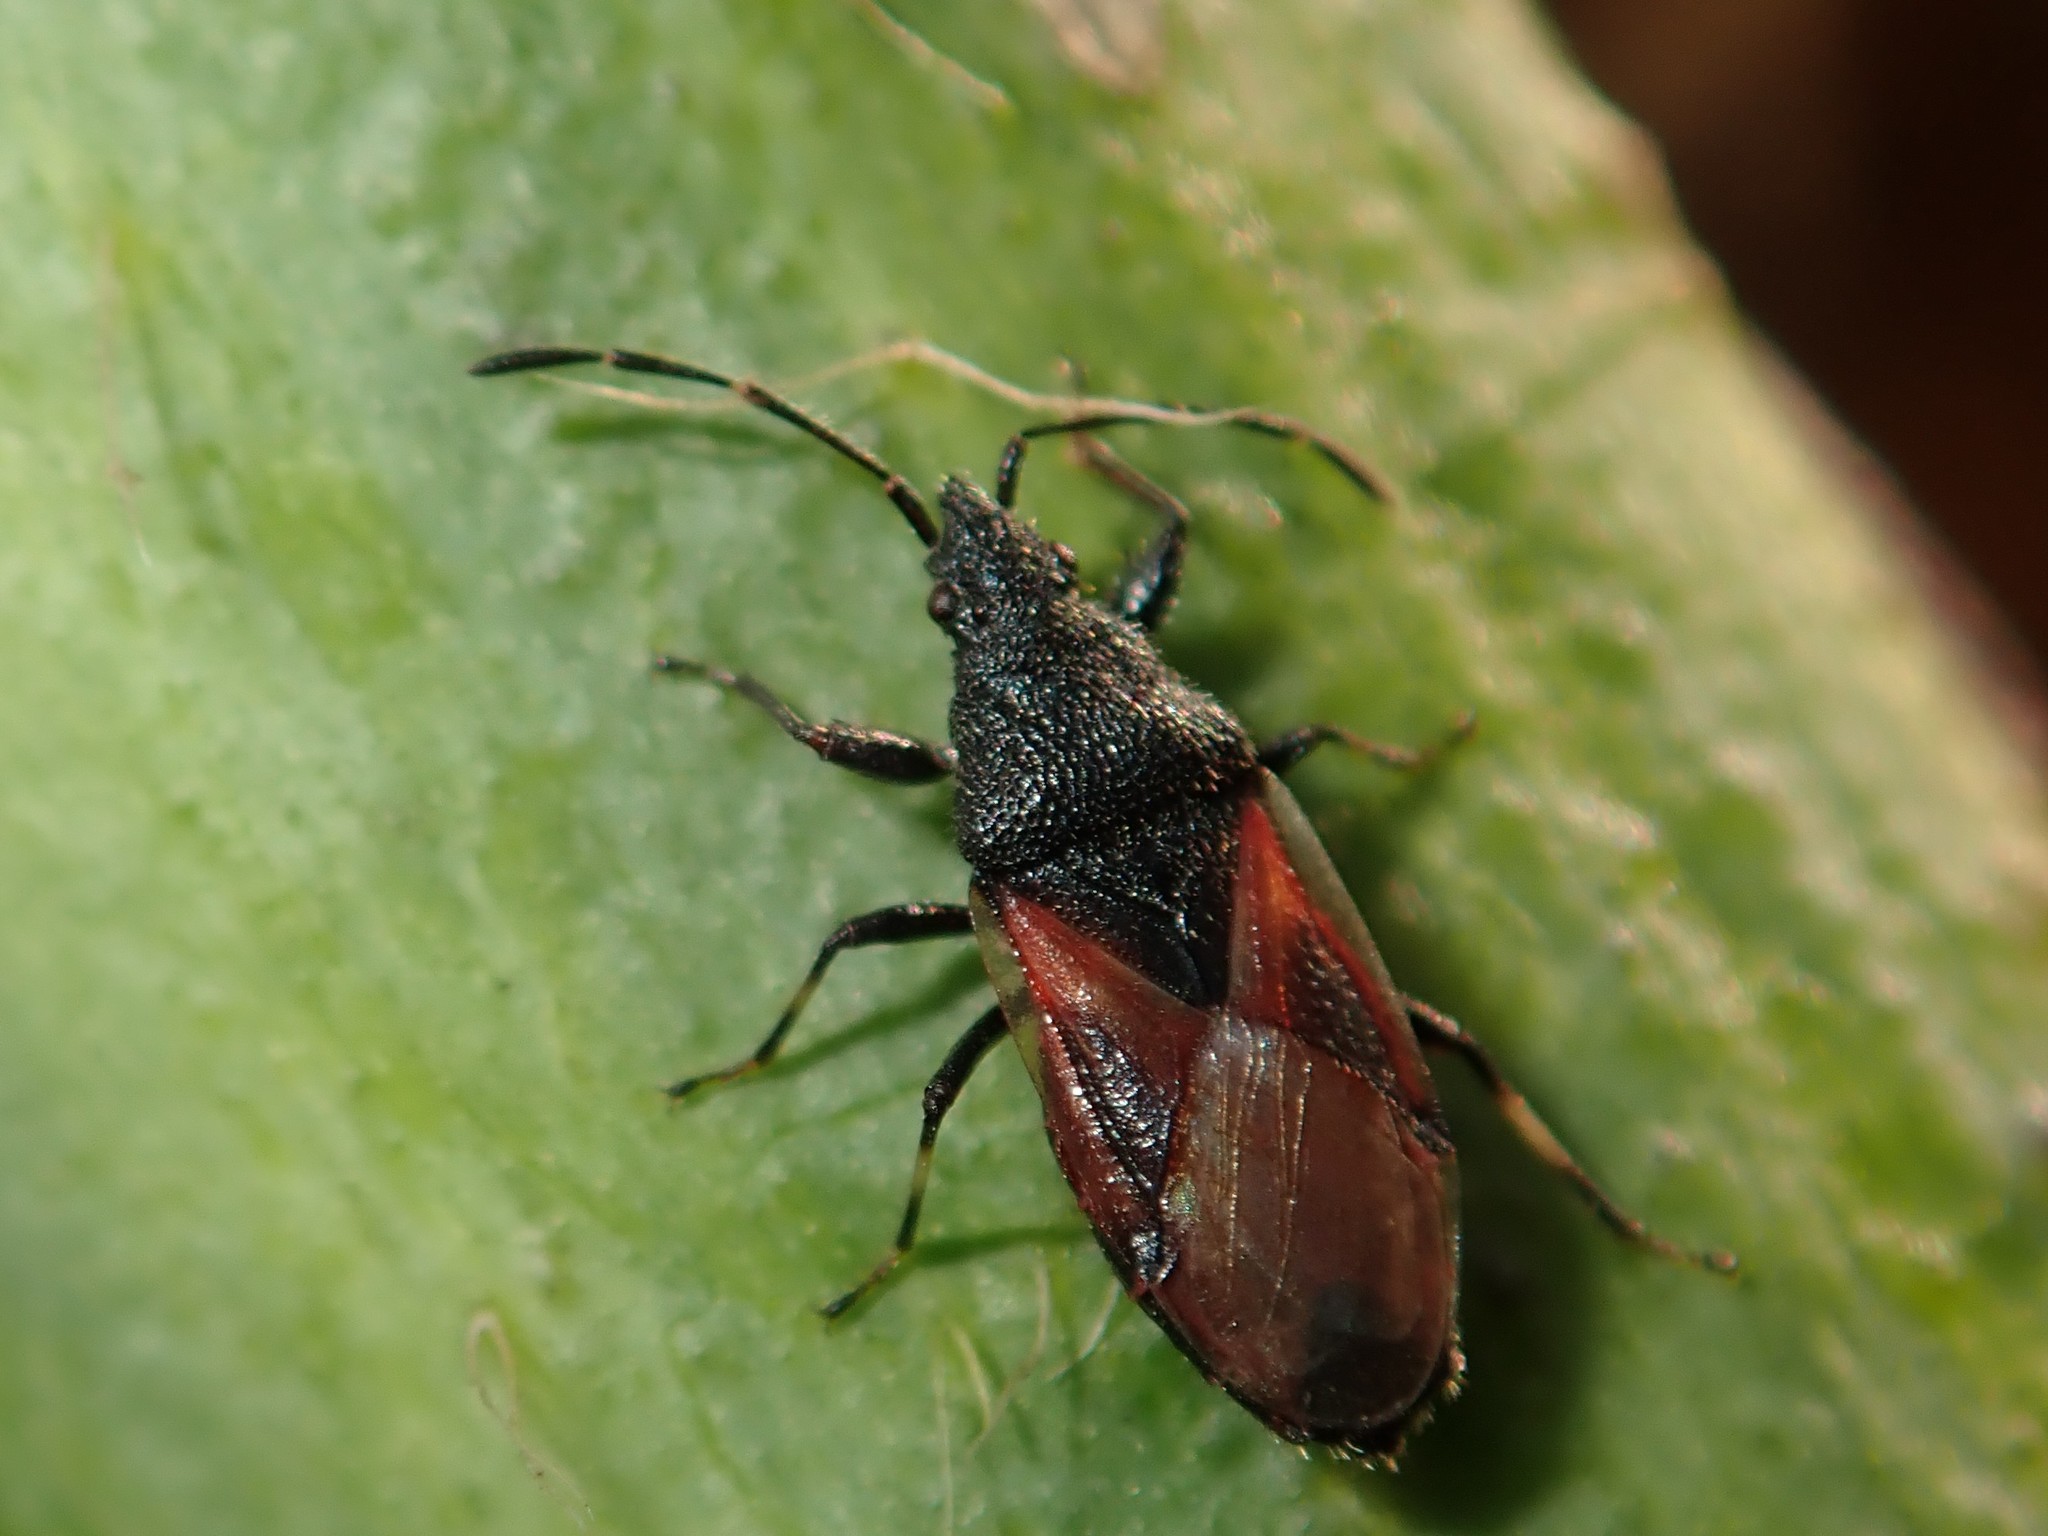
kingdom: Animalia
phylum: Arthropoda
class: Insecta
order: Hemiptera
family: Oxycarenidae
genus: Oxycarenus
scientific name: Oxycarenus lavaterae
